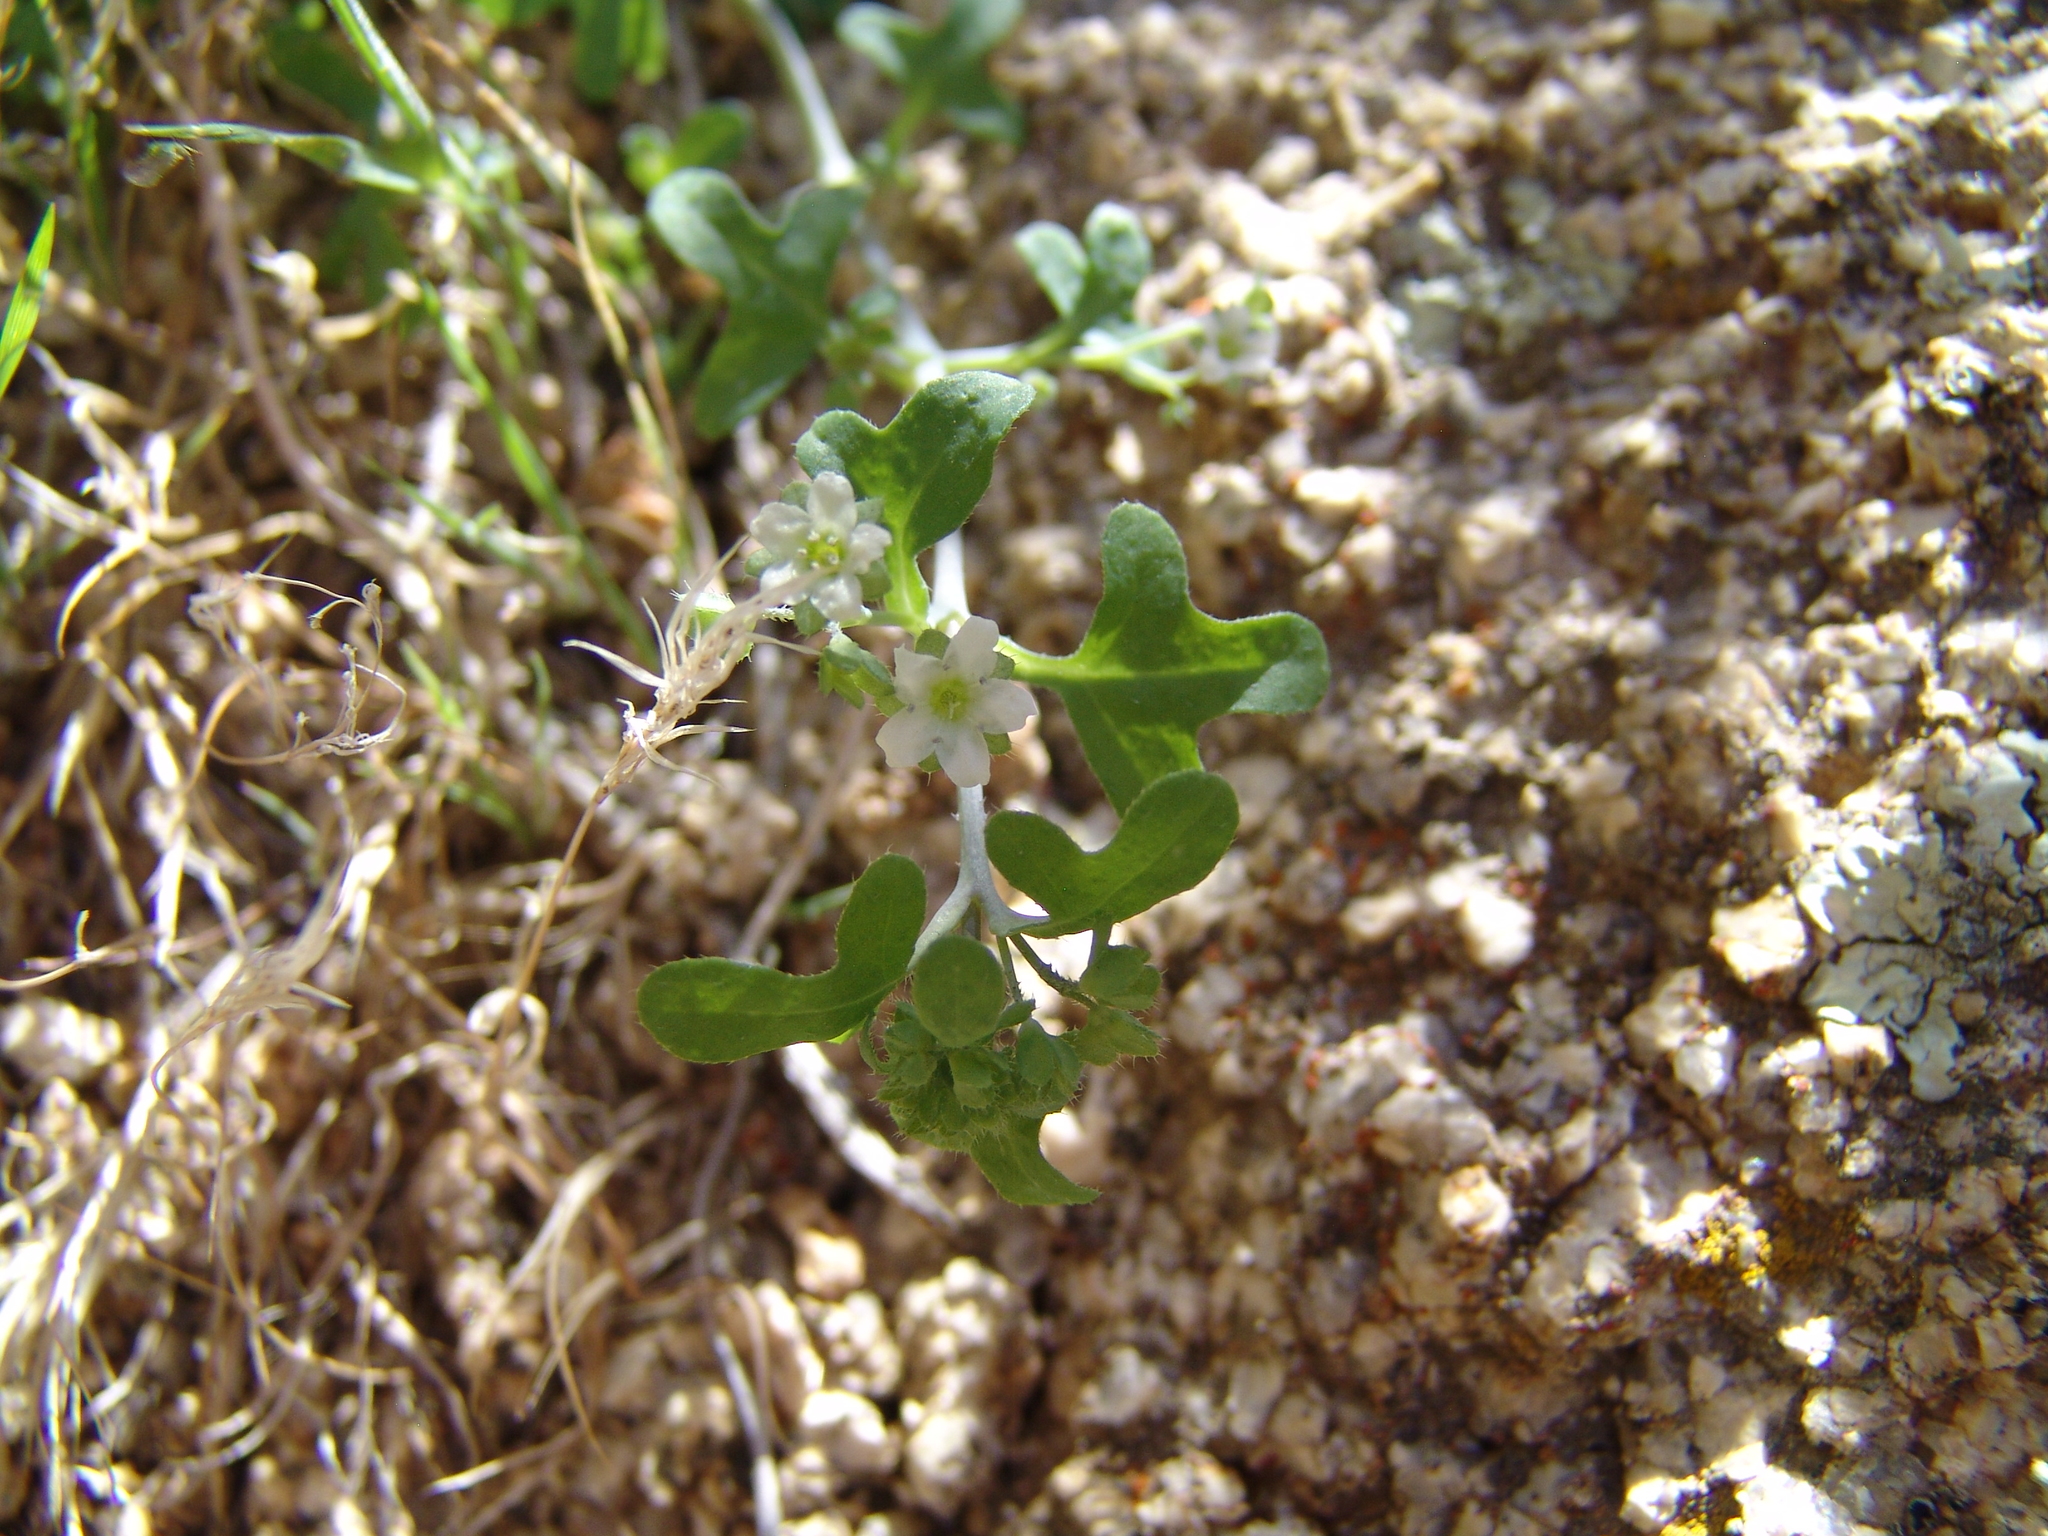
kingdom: Plantae
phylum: Tracheophyta
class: Magnoliopsida
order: Boraginales
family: Hydrophyllaceae
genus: Pholistoma
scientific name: Pholistoma membranaceum
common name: White fiesta-flower
